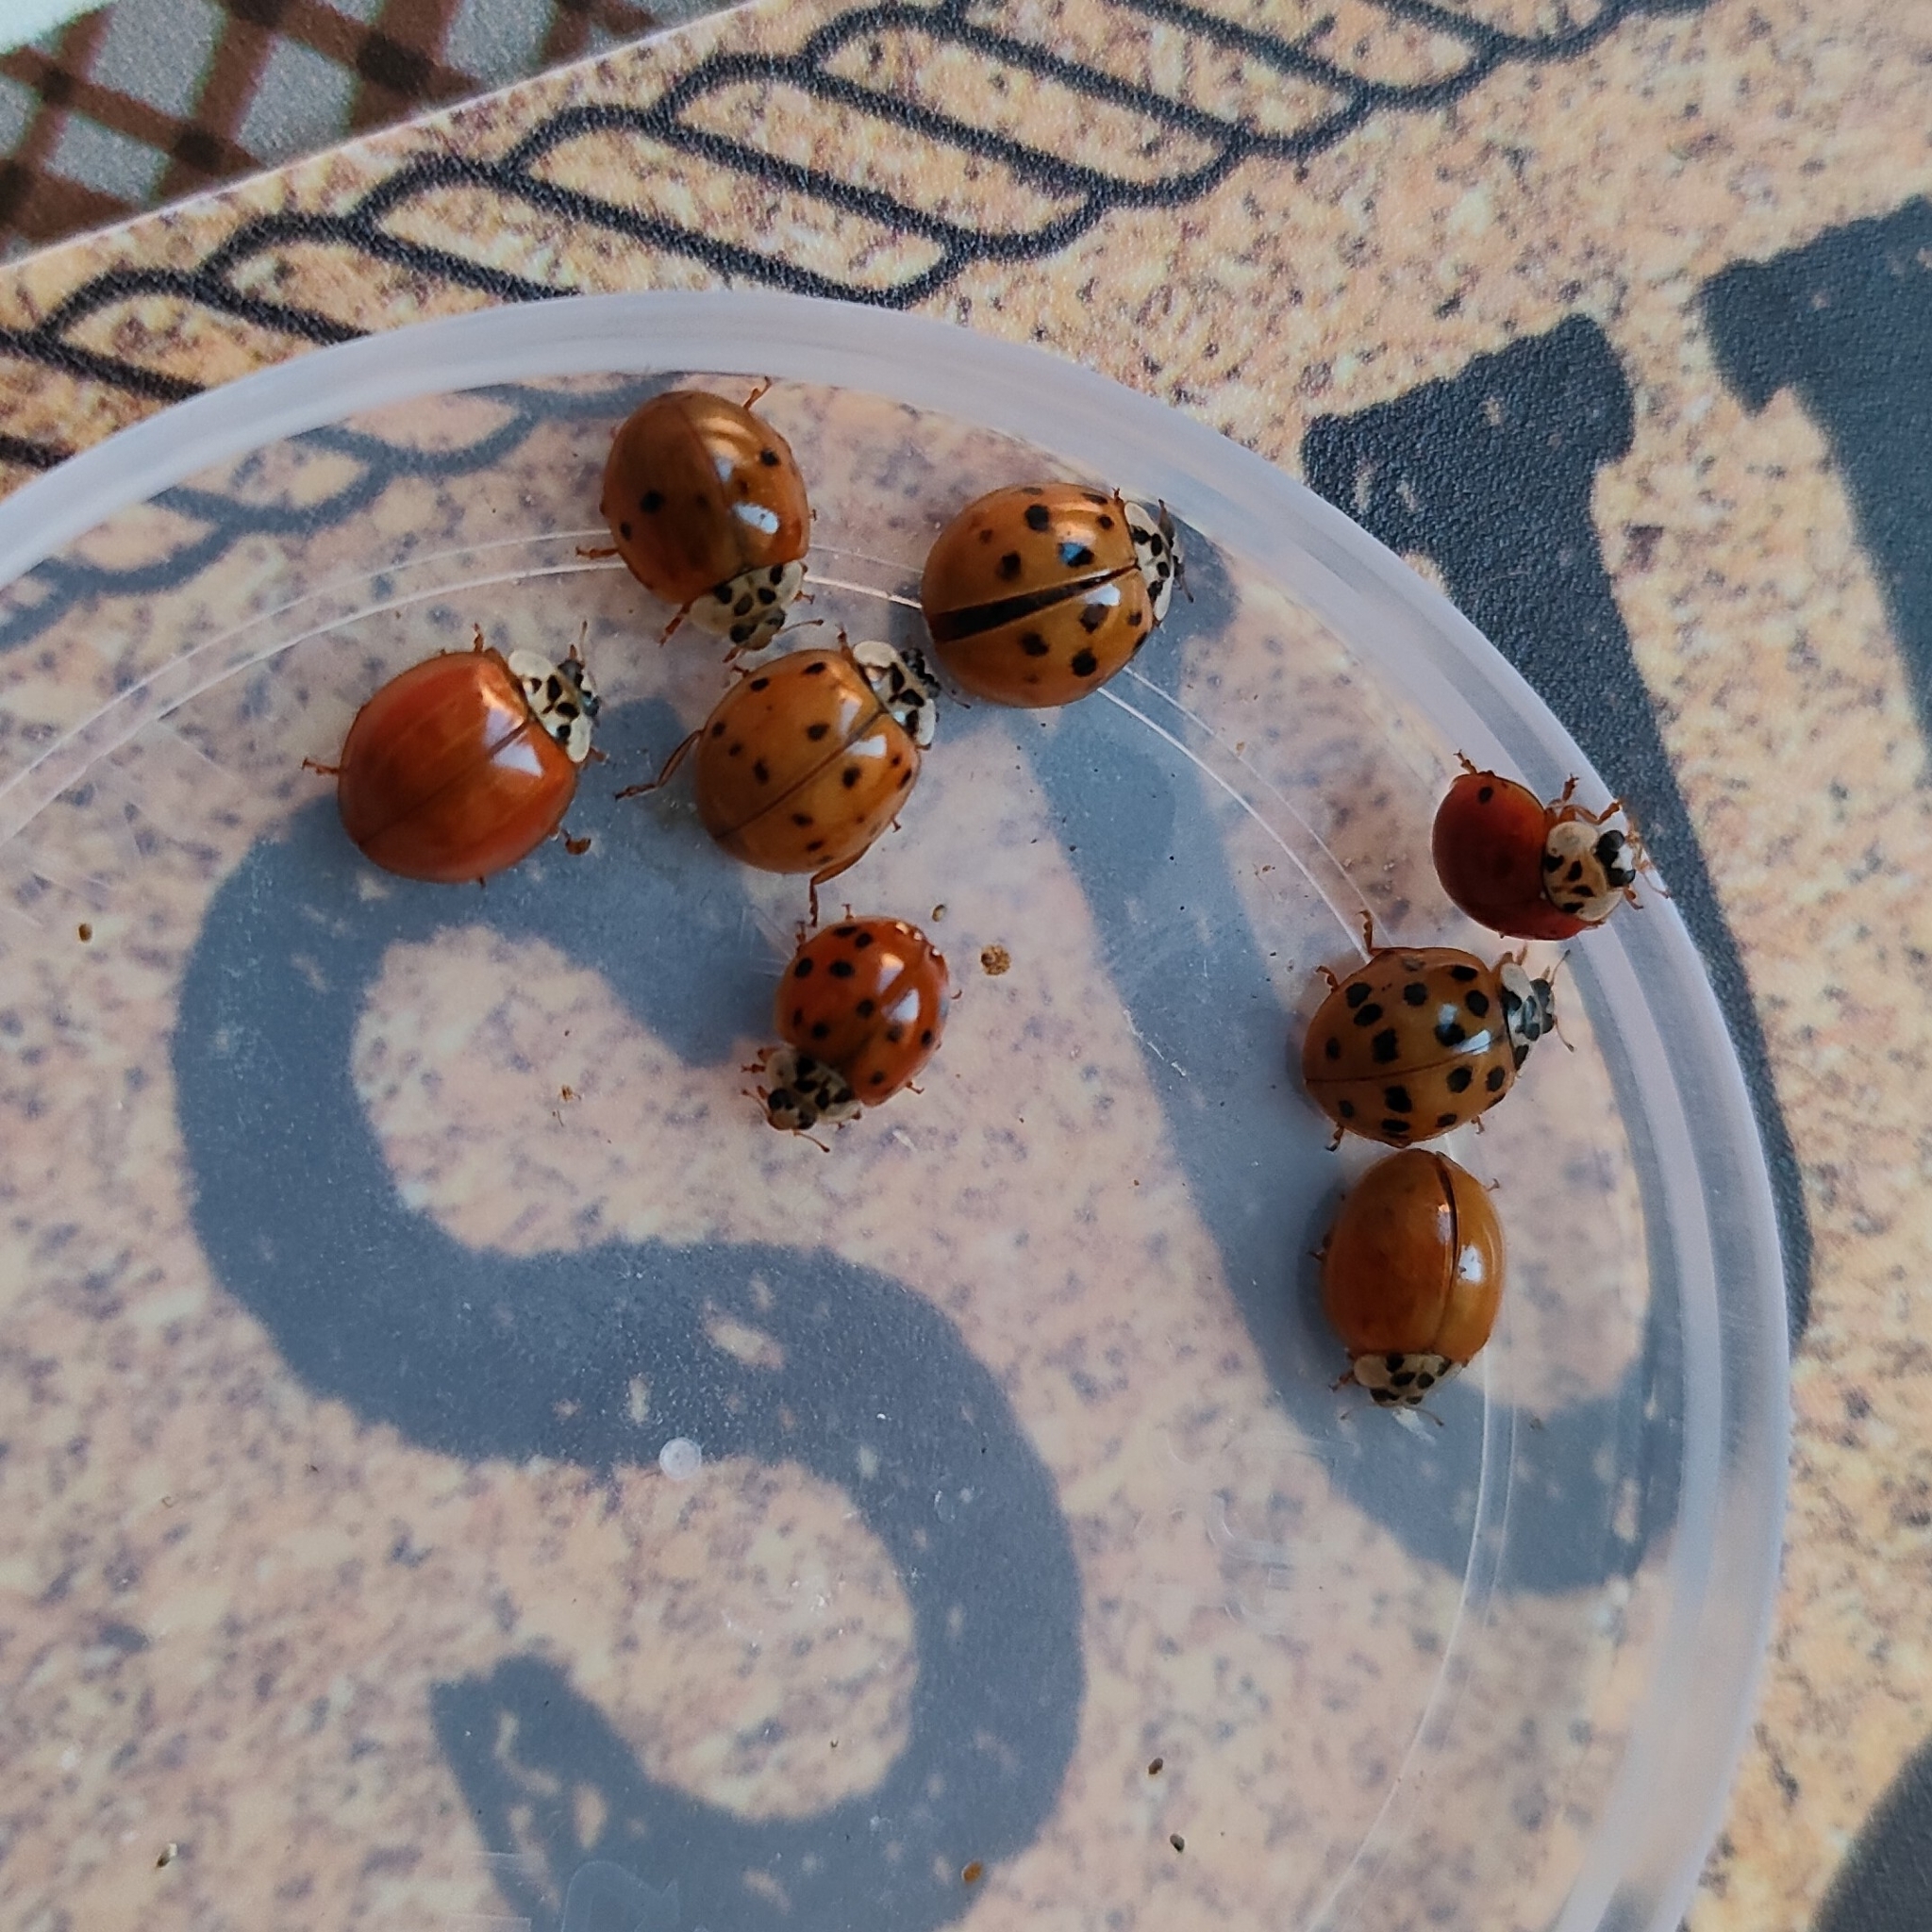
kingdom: Animalia
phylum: Arthropoda
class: Insecta
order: Coleoptera
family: Coccinellidae
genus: Harmonia
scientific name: Harmonia axyridis
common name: Harlequin ladybird
